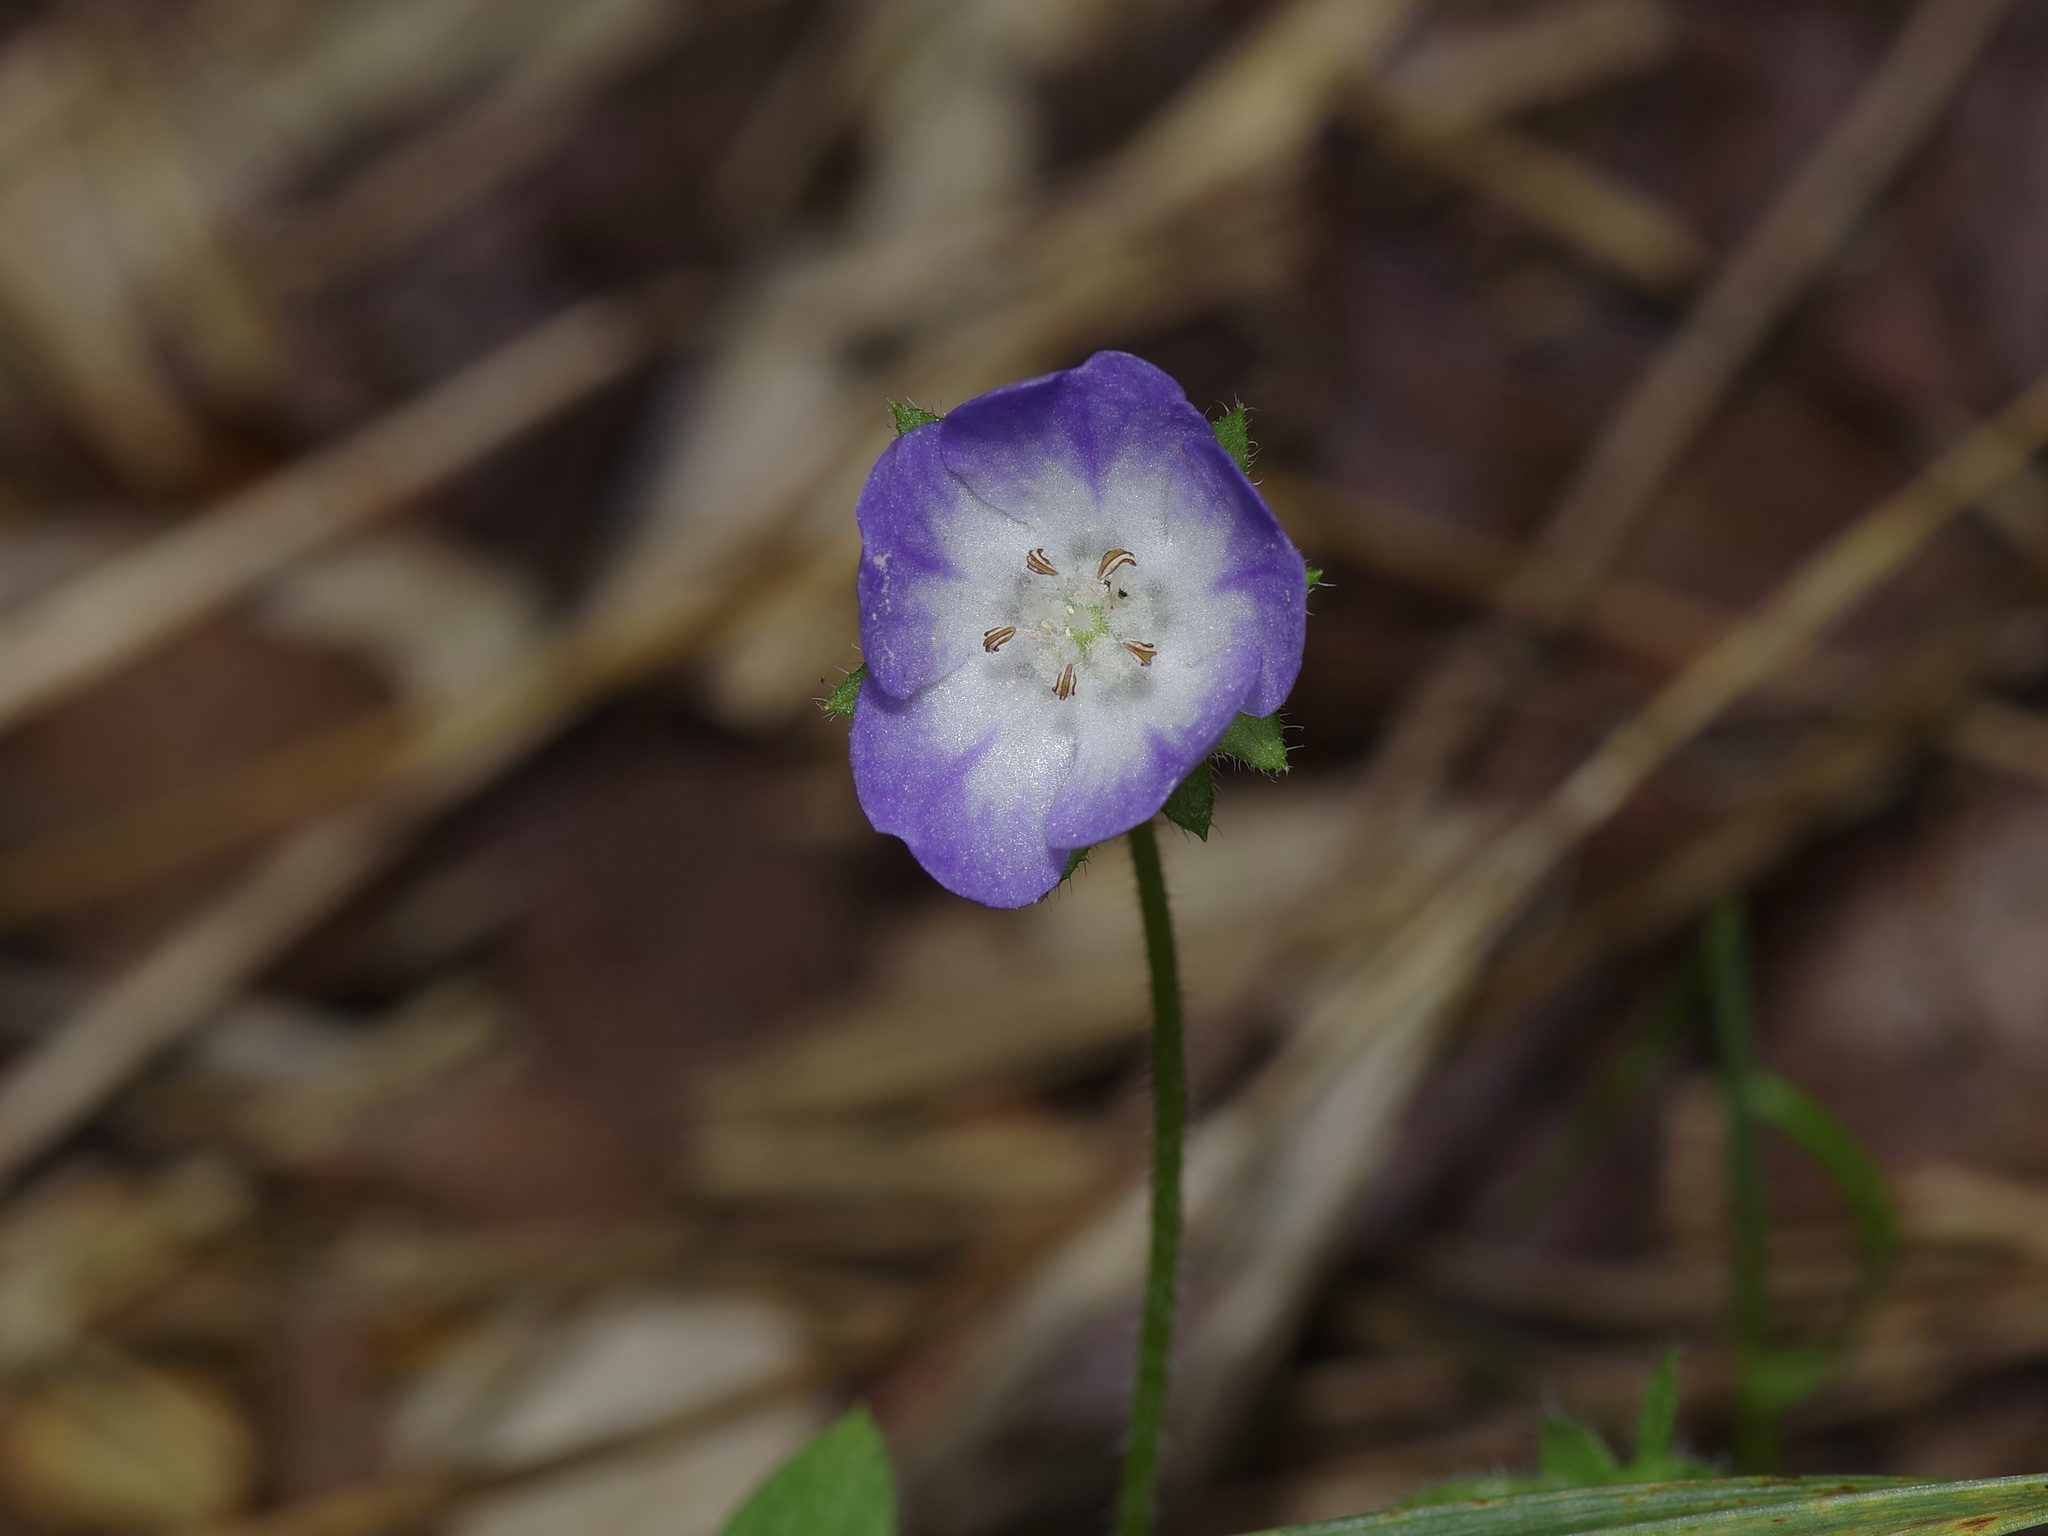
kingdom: Plantae
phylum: Tracheophyta
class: Magnoliopsida
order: Boraginales
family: Hydrophyllaceae
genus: Nemophila
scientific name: Nemophila phacelioides
